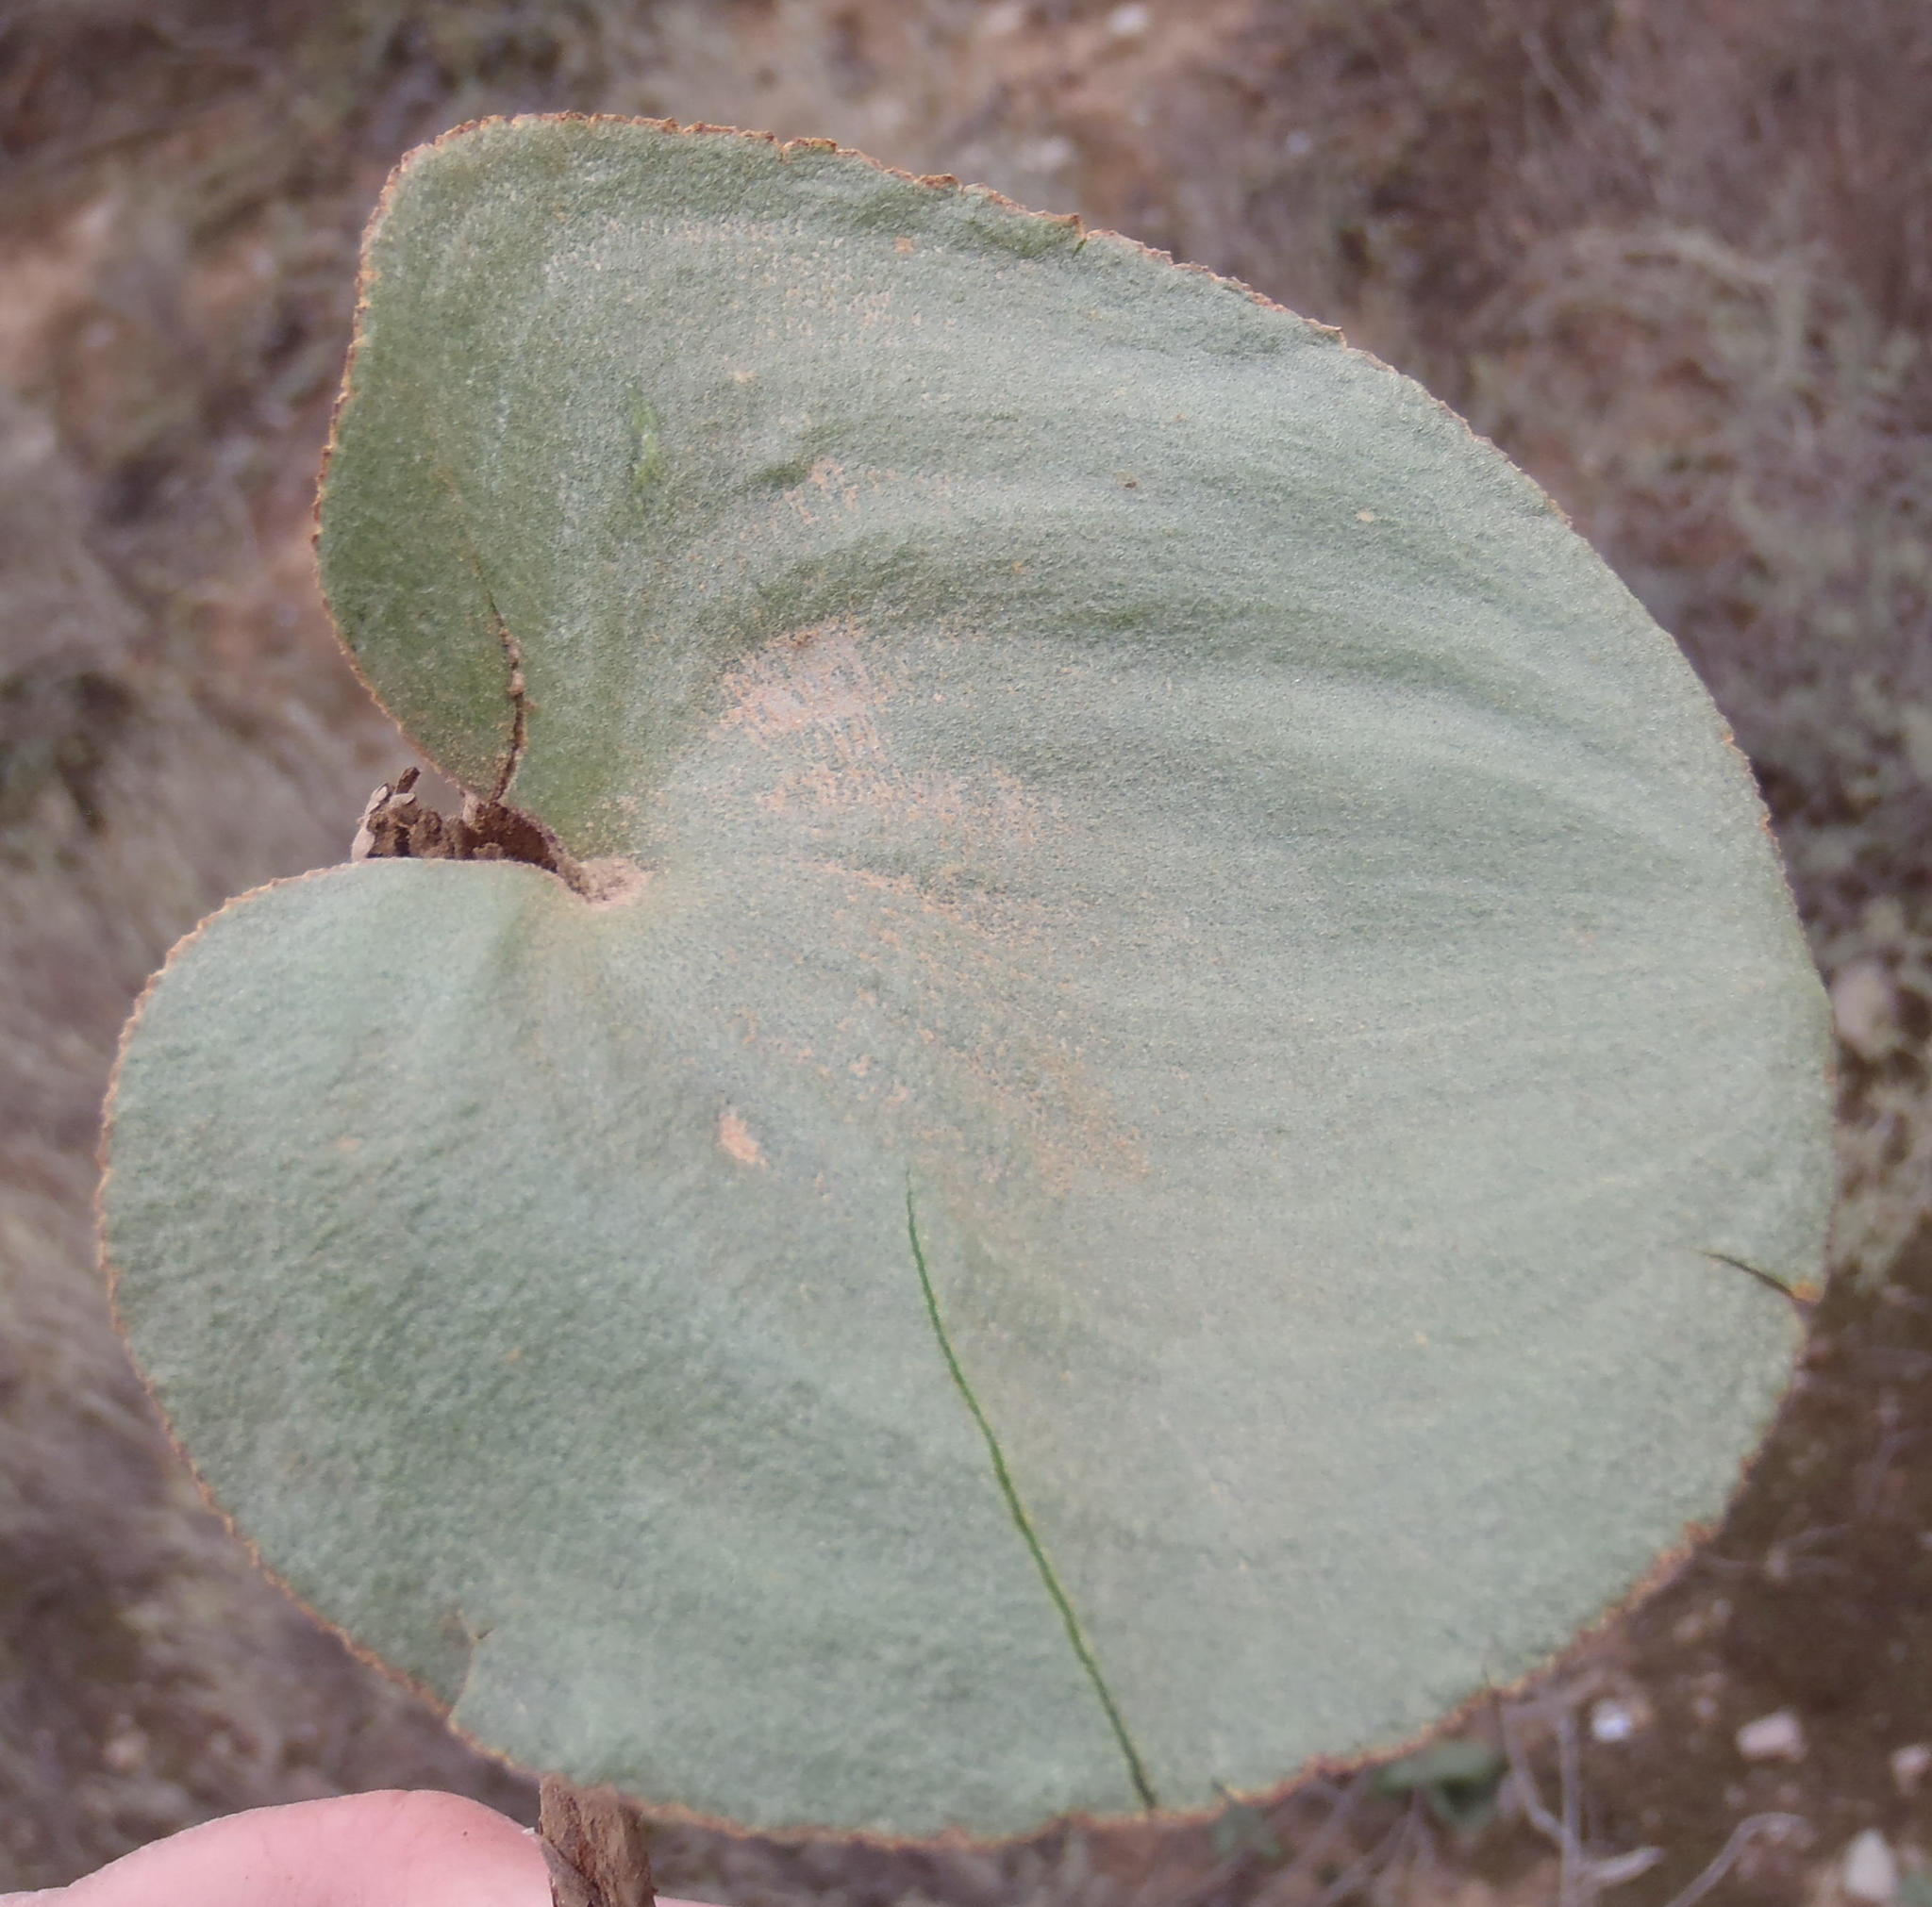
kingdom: Plantae
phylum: Tracheophyta
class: Liliopsida
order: Asparagales
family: Asparagaceae
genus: Eriospermum
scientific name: Eriospermum cordiforme
